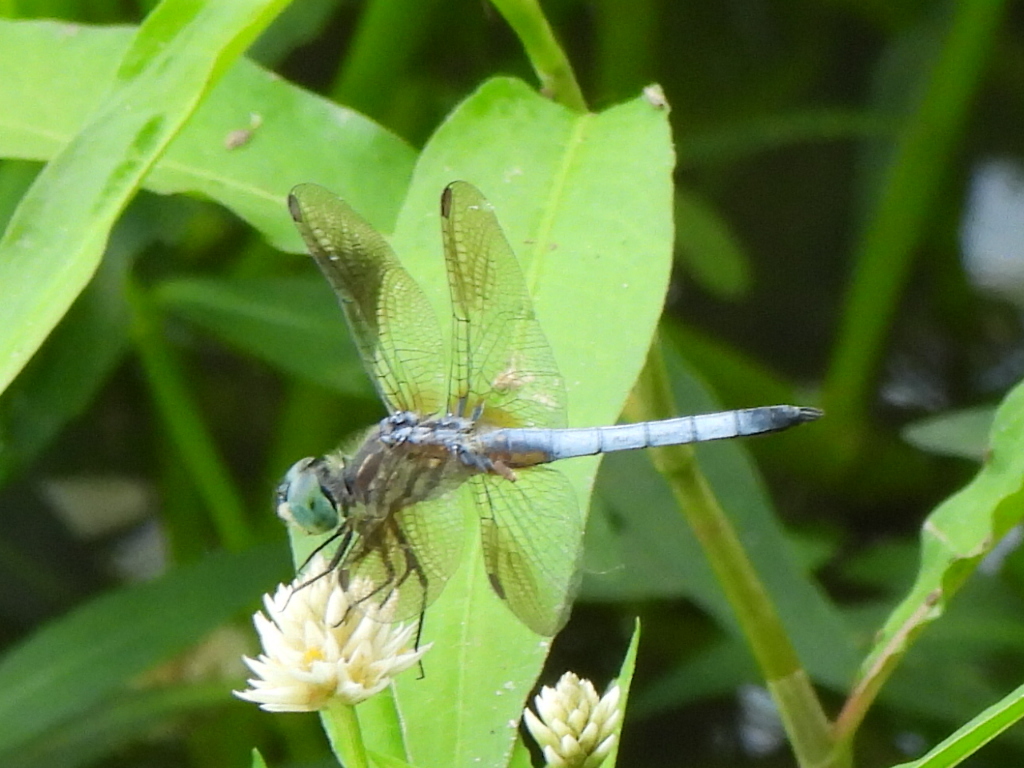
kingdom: Animalia
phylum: Arthropoda
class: Insecta
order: Odonata
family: Libellulidae
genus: Pachydiplax
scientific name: Pachydiplax longipennis
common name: Blue dasher
